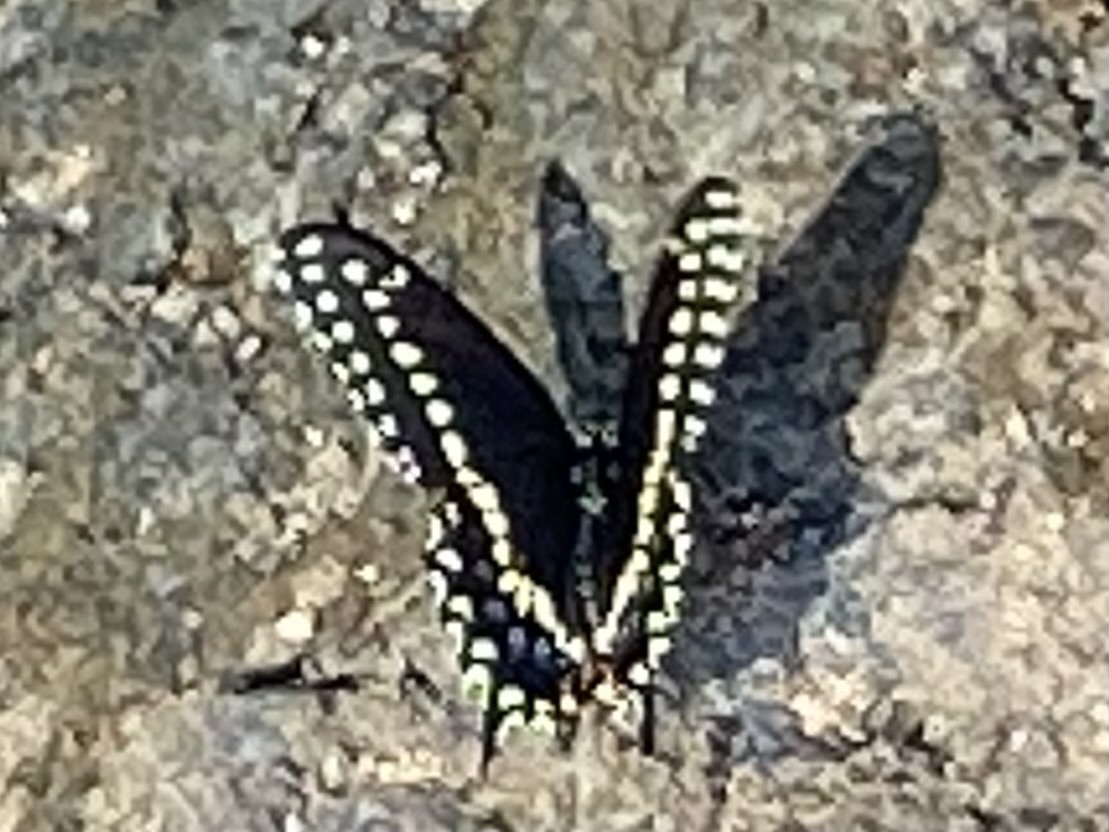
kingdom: Animalia
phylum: Arthropoda
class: Insecta
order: Lepidoptera
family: Papilionidae
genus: Papilio
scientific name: Papilio polyxenes
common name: Black swallowtail
